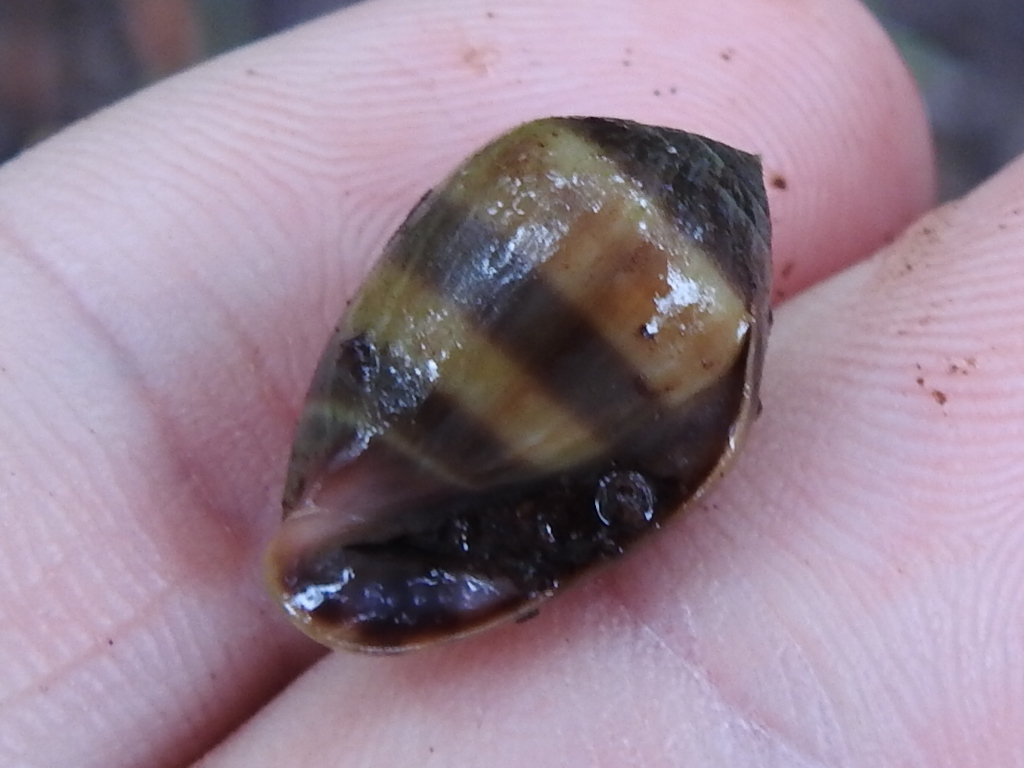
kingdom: Animalia
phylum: Mollusca
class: Gastropoda
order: Ellobiida
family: Ellobiidae
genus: Melampus
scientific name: Melampus coffea
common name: Coffee bean snail
